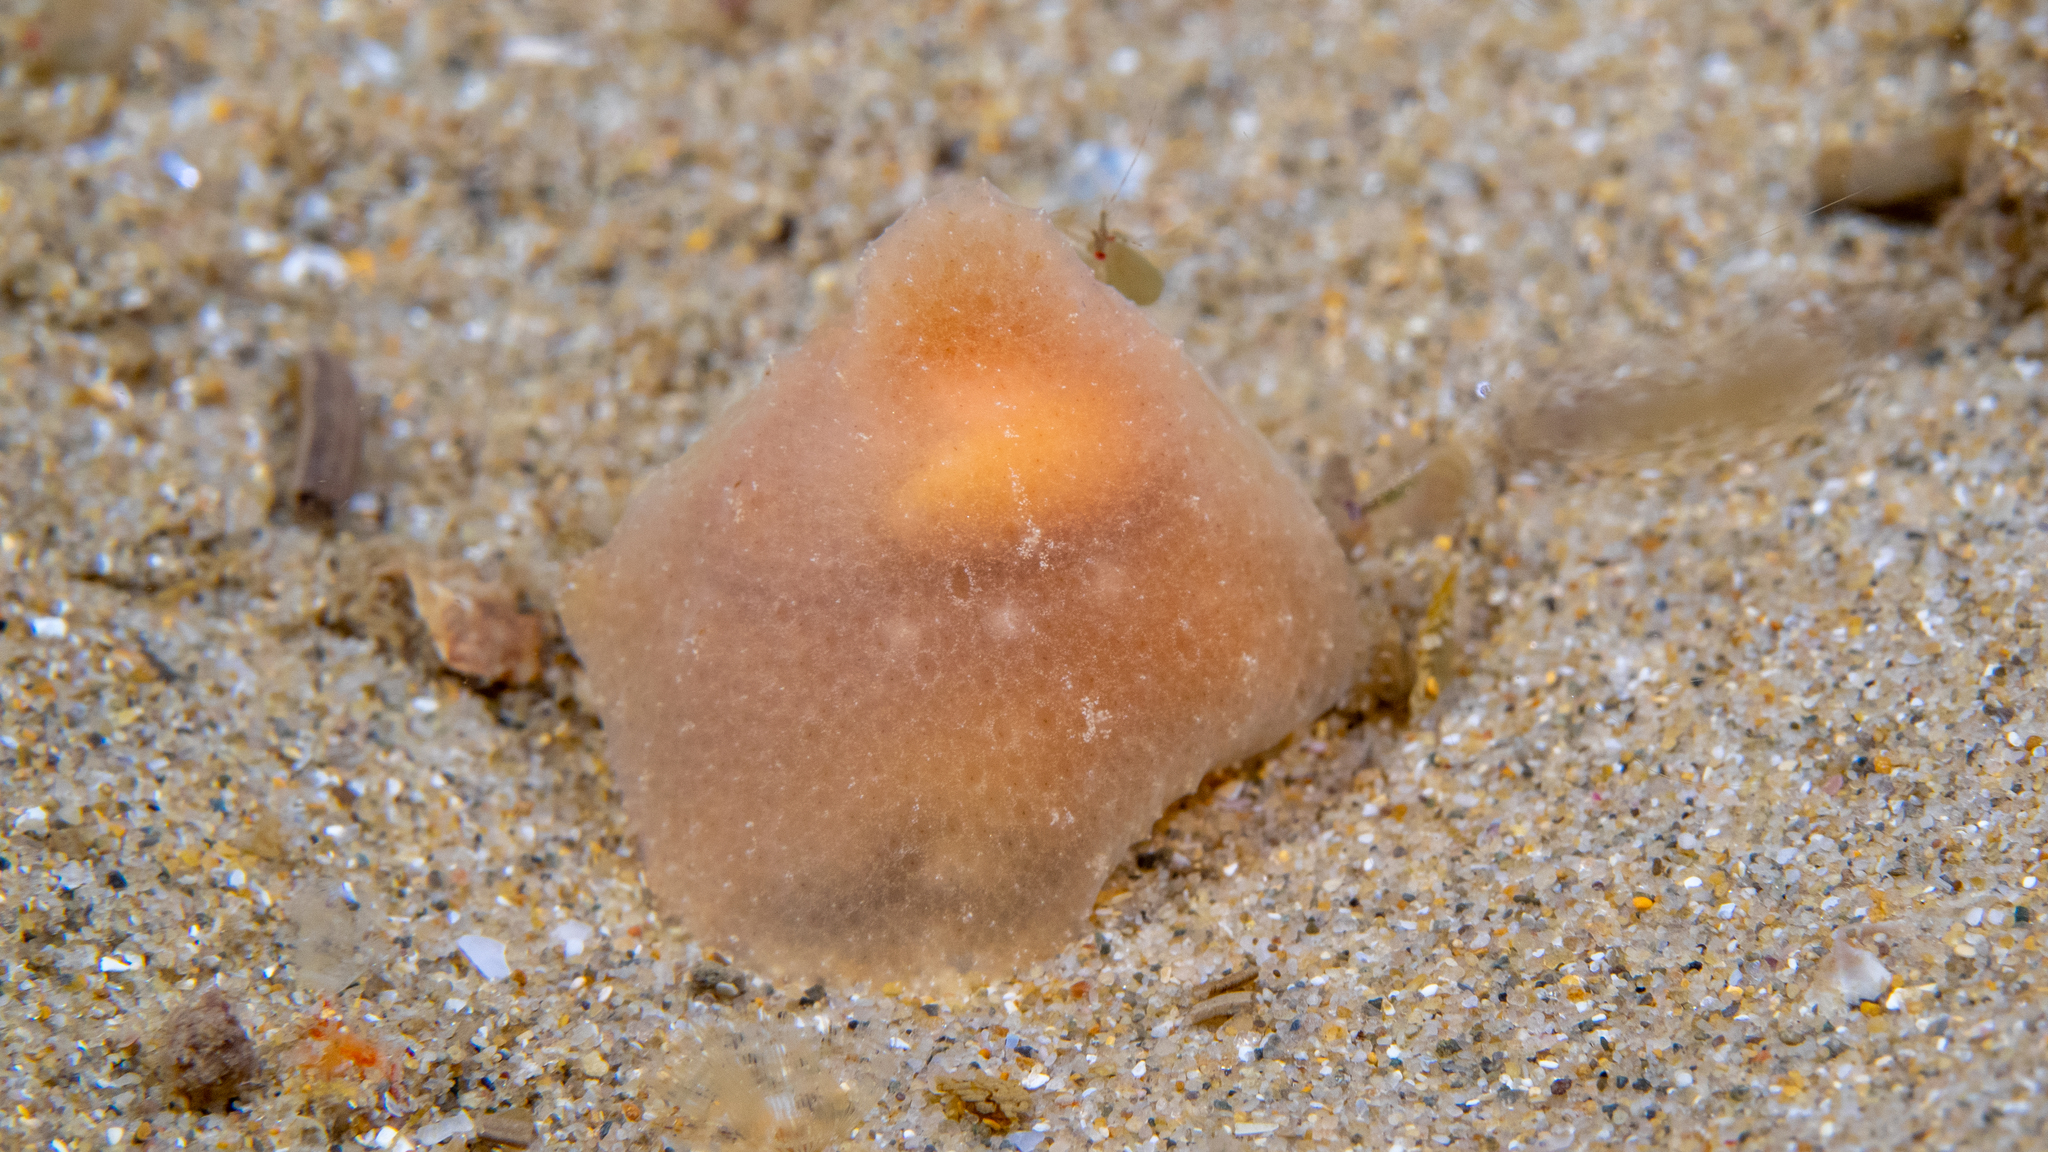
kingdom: Animalia
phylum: Mollusca
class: Gastropoda
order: Littorinimorpha
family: Velutinidae
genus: Lamellaria
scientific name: Lamellaria ophione
